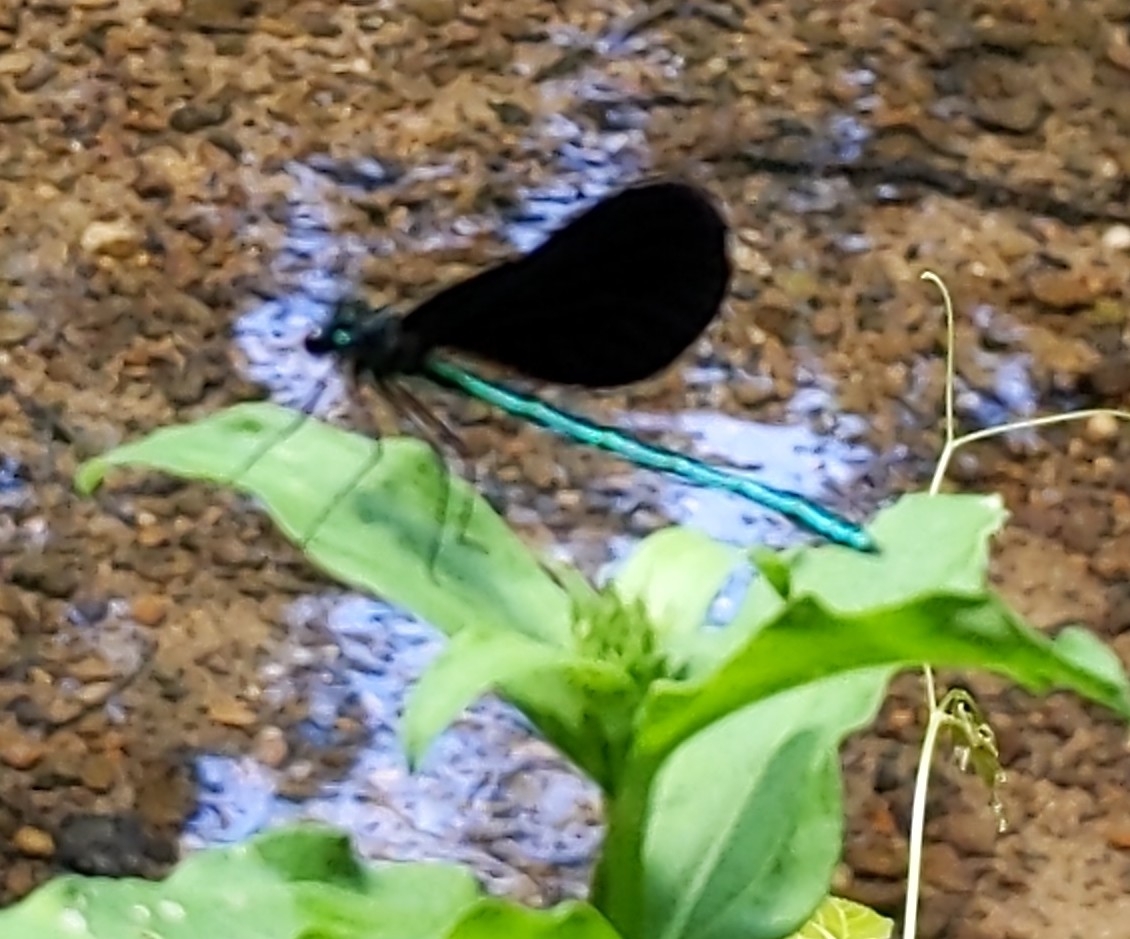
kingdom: Animalia
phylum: Arthropoda
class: Insecta
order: Odonata
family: Calopterygidae
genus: Calopteryx
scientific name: Calopteryx maculata
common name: Ebony jewelwing
